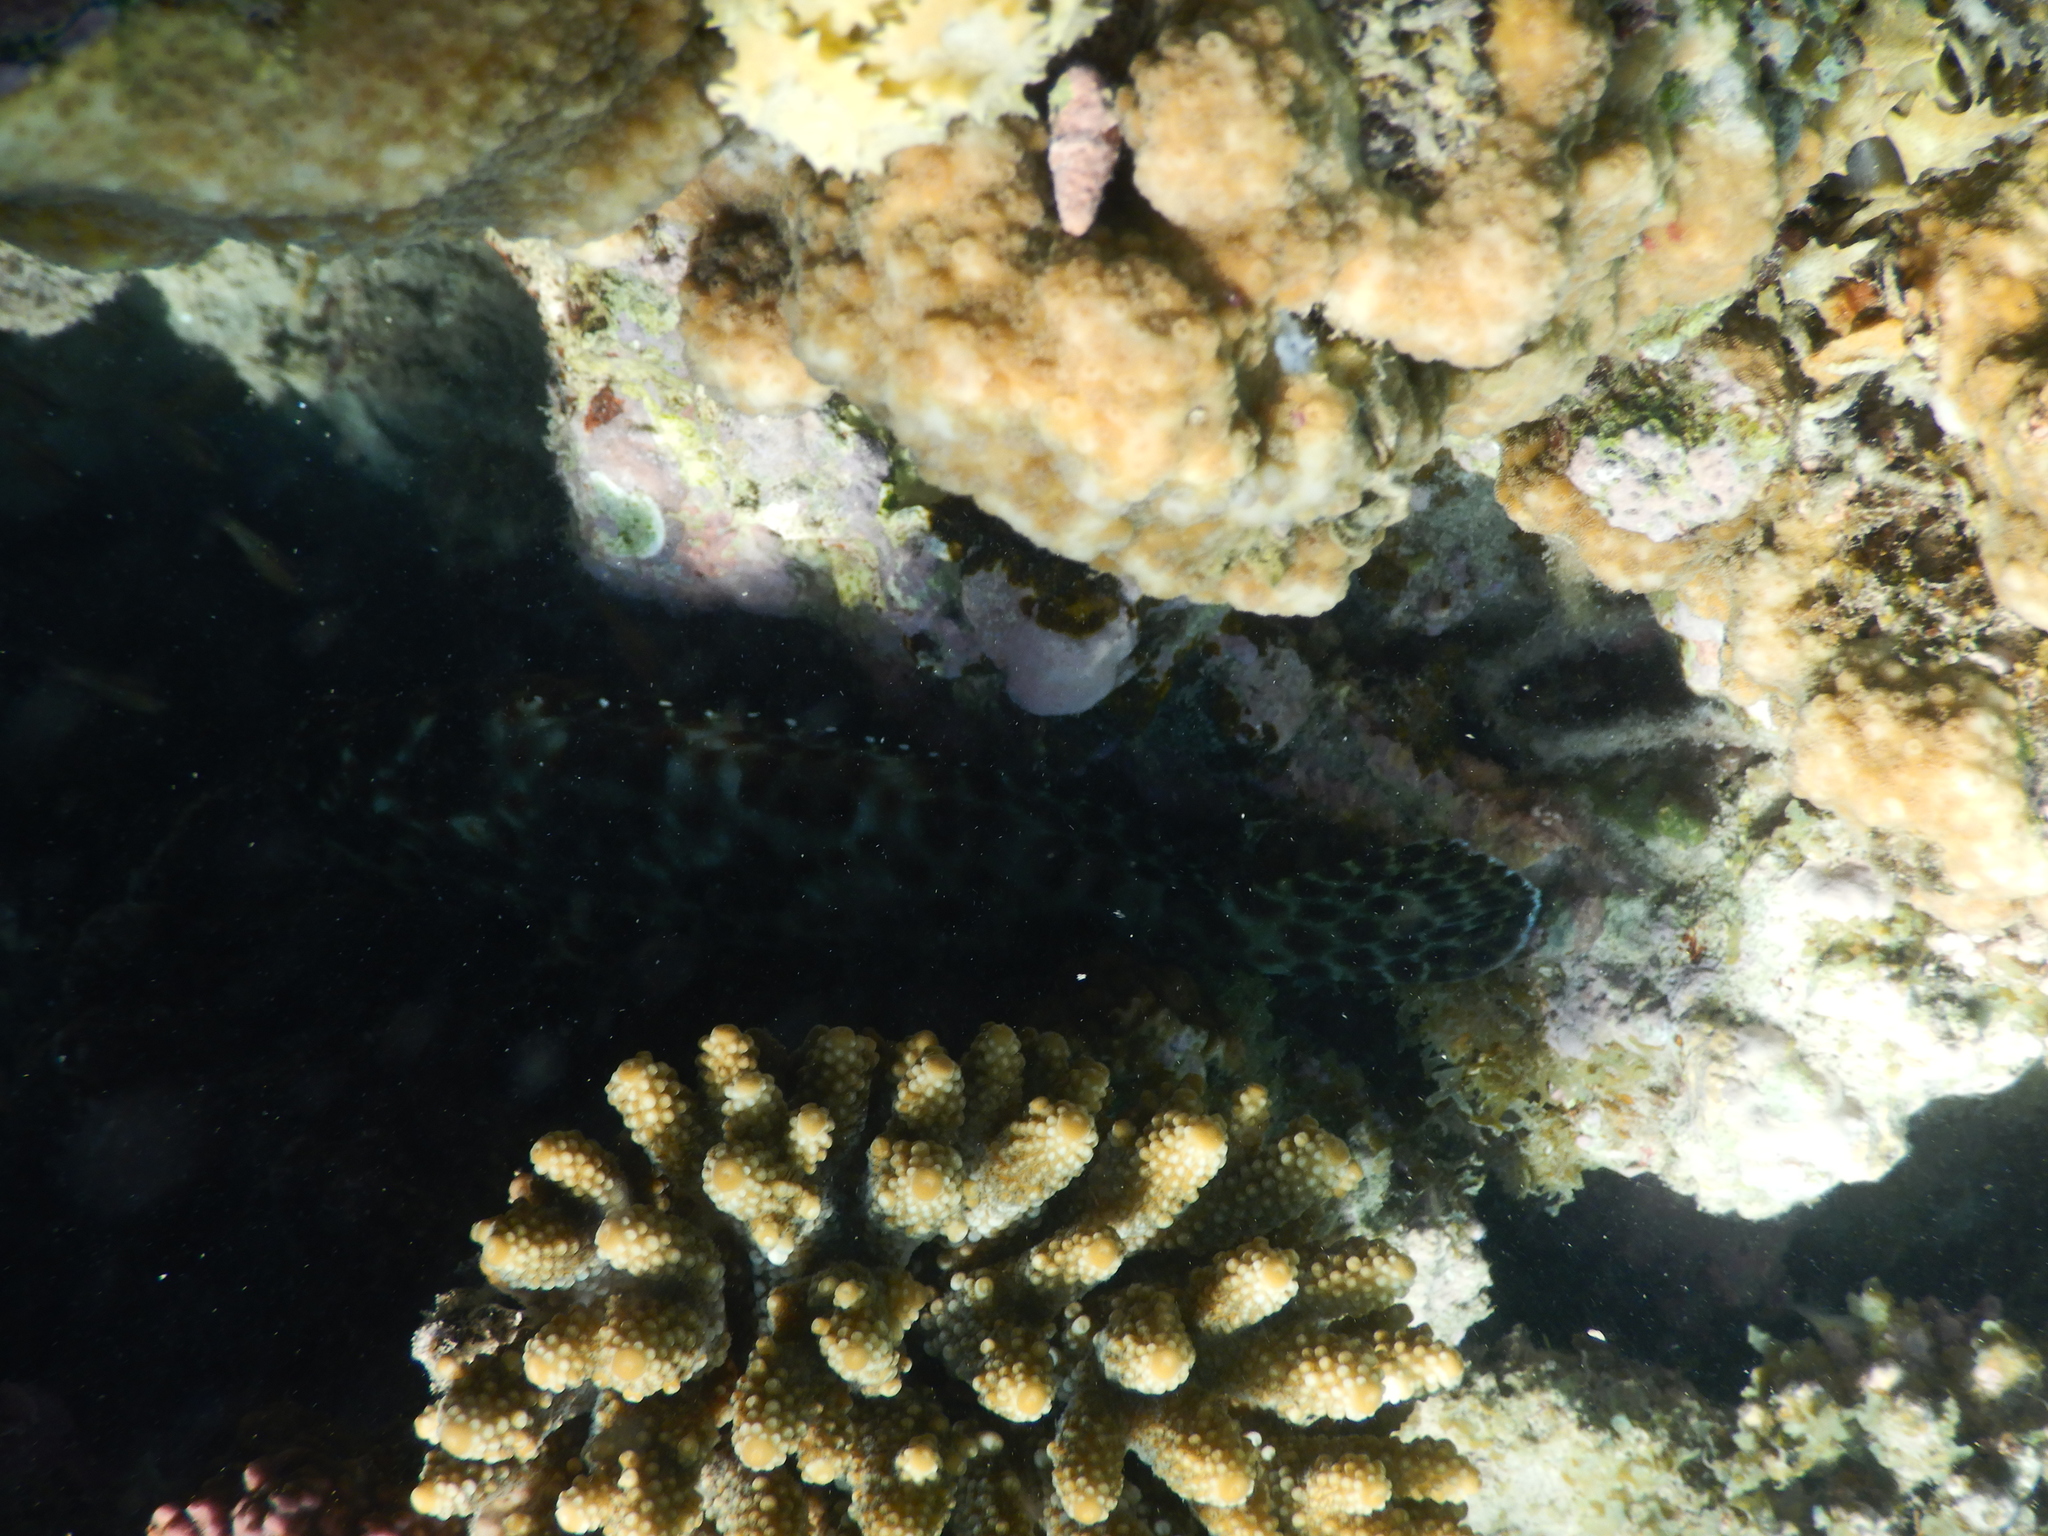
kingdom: Animalia
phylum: Chordata
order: Perciformes
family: Serranidae
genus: Epinephelus
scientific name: Epinephelus tauvina
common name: Greasy grouper
